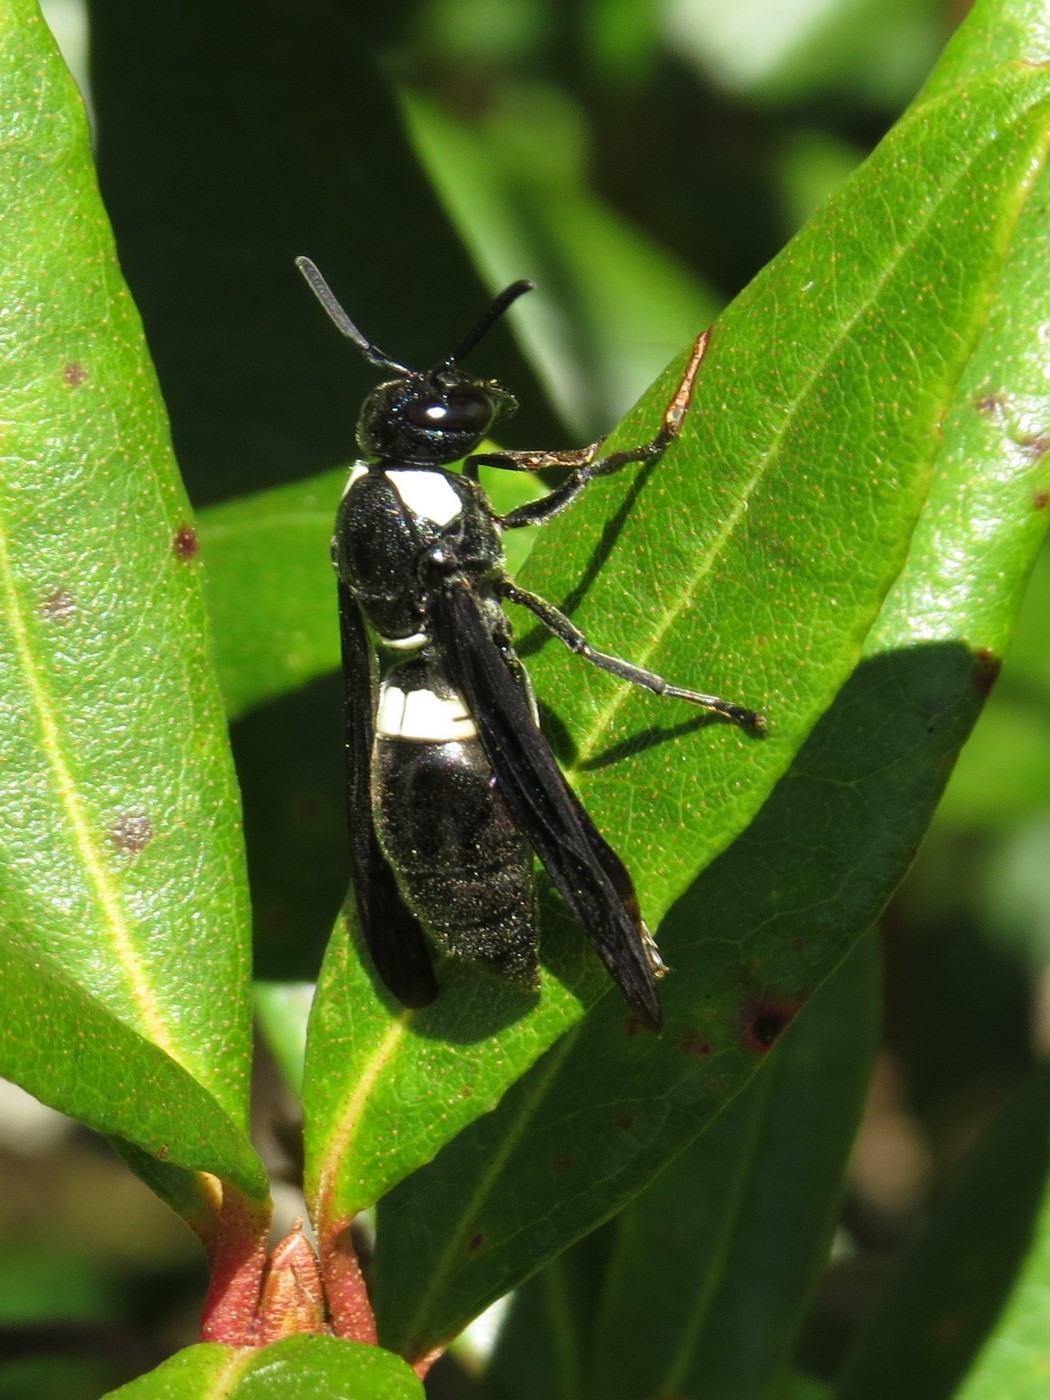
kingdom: Animalia
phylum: Arthropoda
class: Insecta
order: Hymenoptera
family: Eumenidae
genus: Monobia
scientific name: Monobia quadridens
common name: Four-toothed mason wasp
